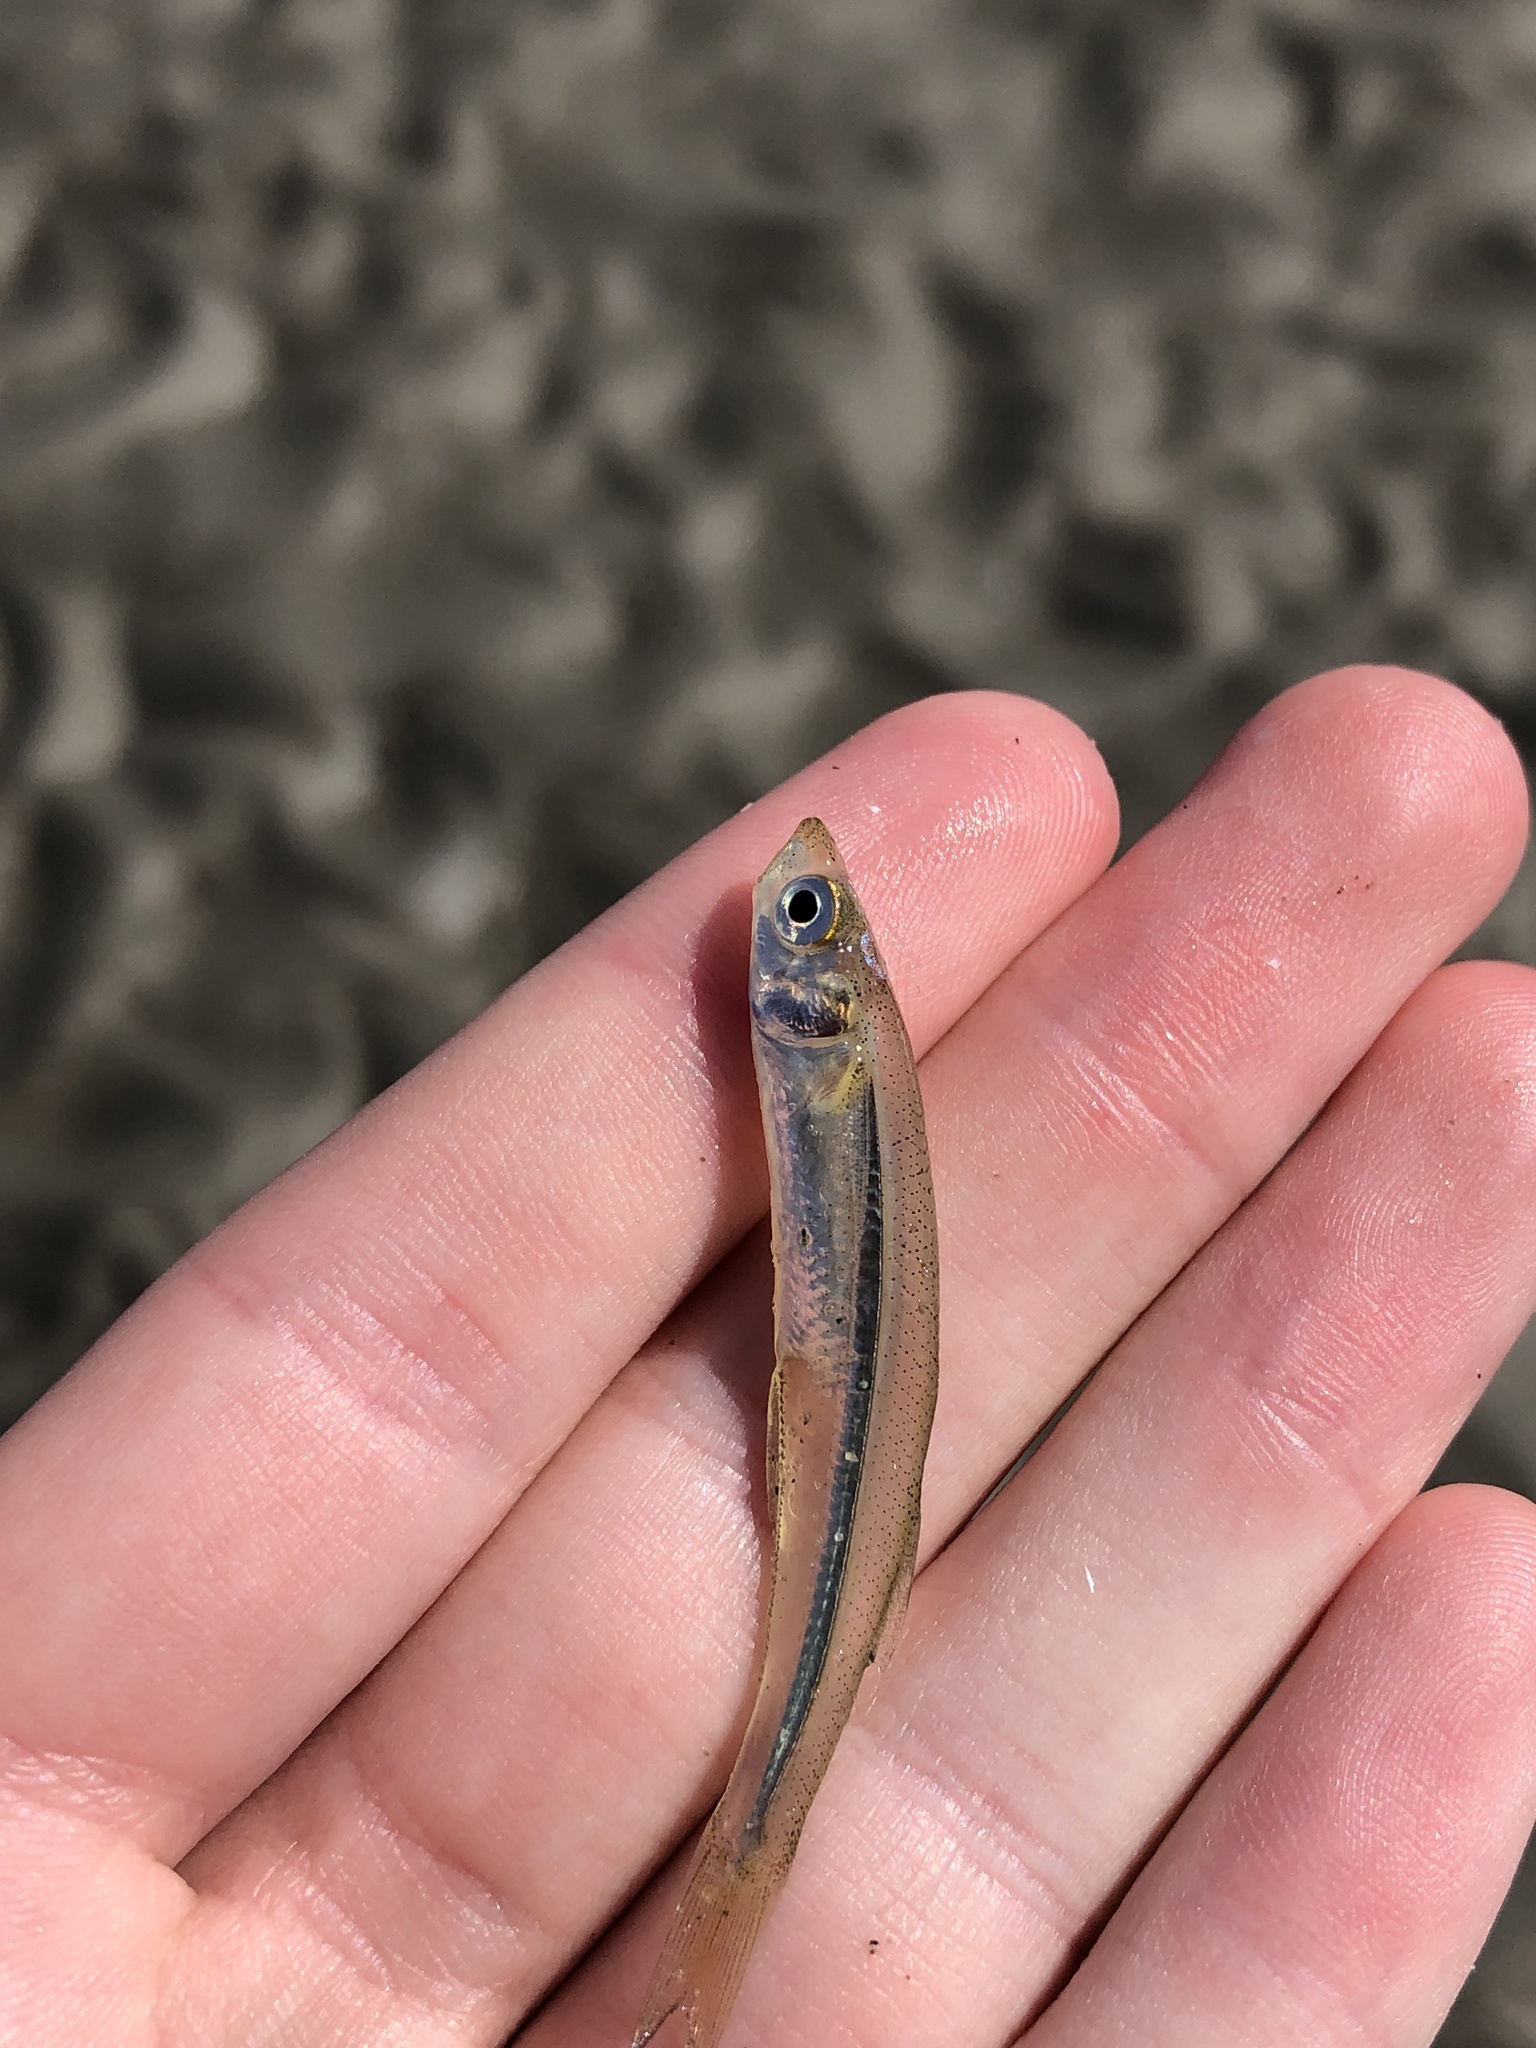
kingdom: Animalia
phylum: Chordata
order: Atheriniformes
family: Atherinopsidae
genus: Menidia
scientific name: Menidia menidia
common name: Atlantic silverside
